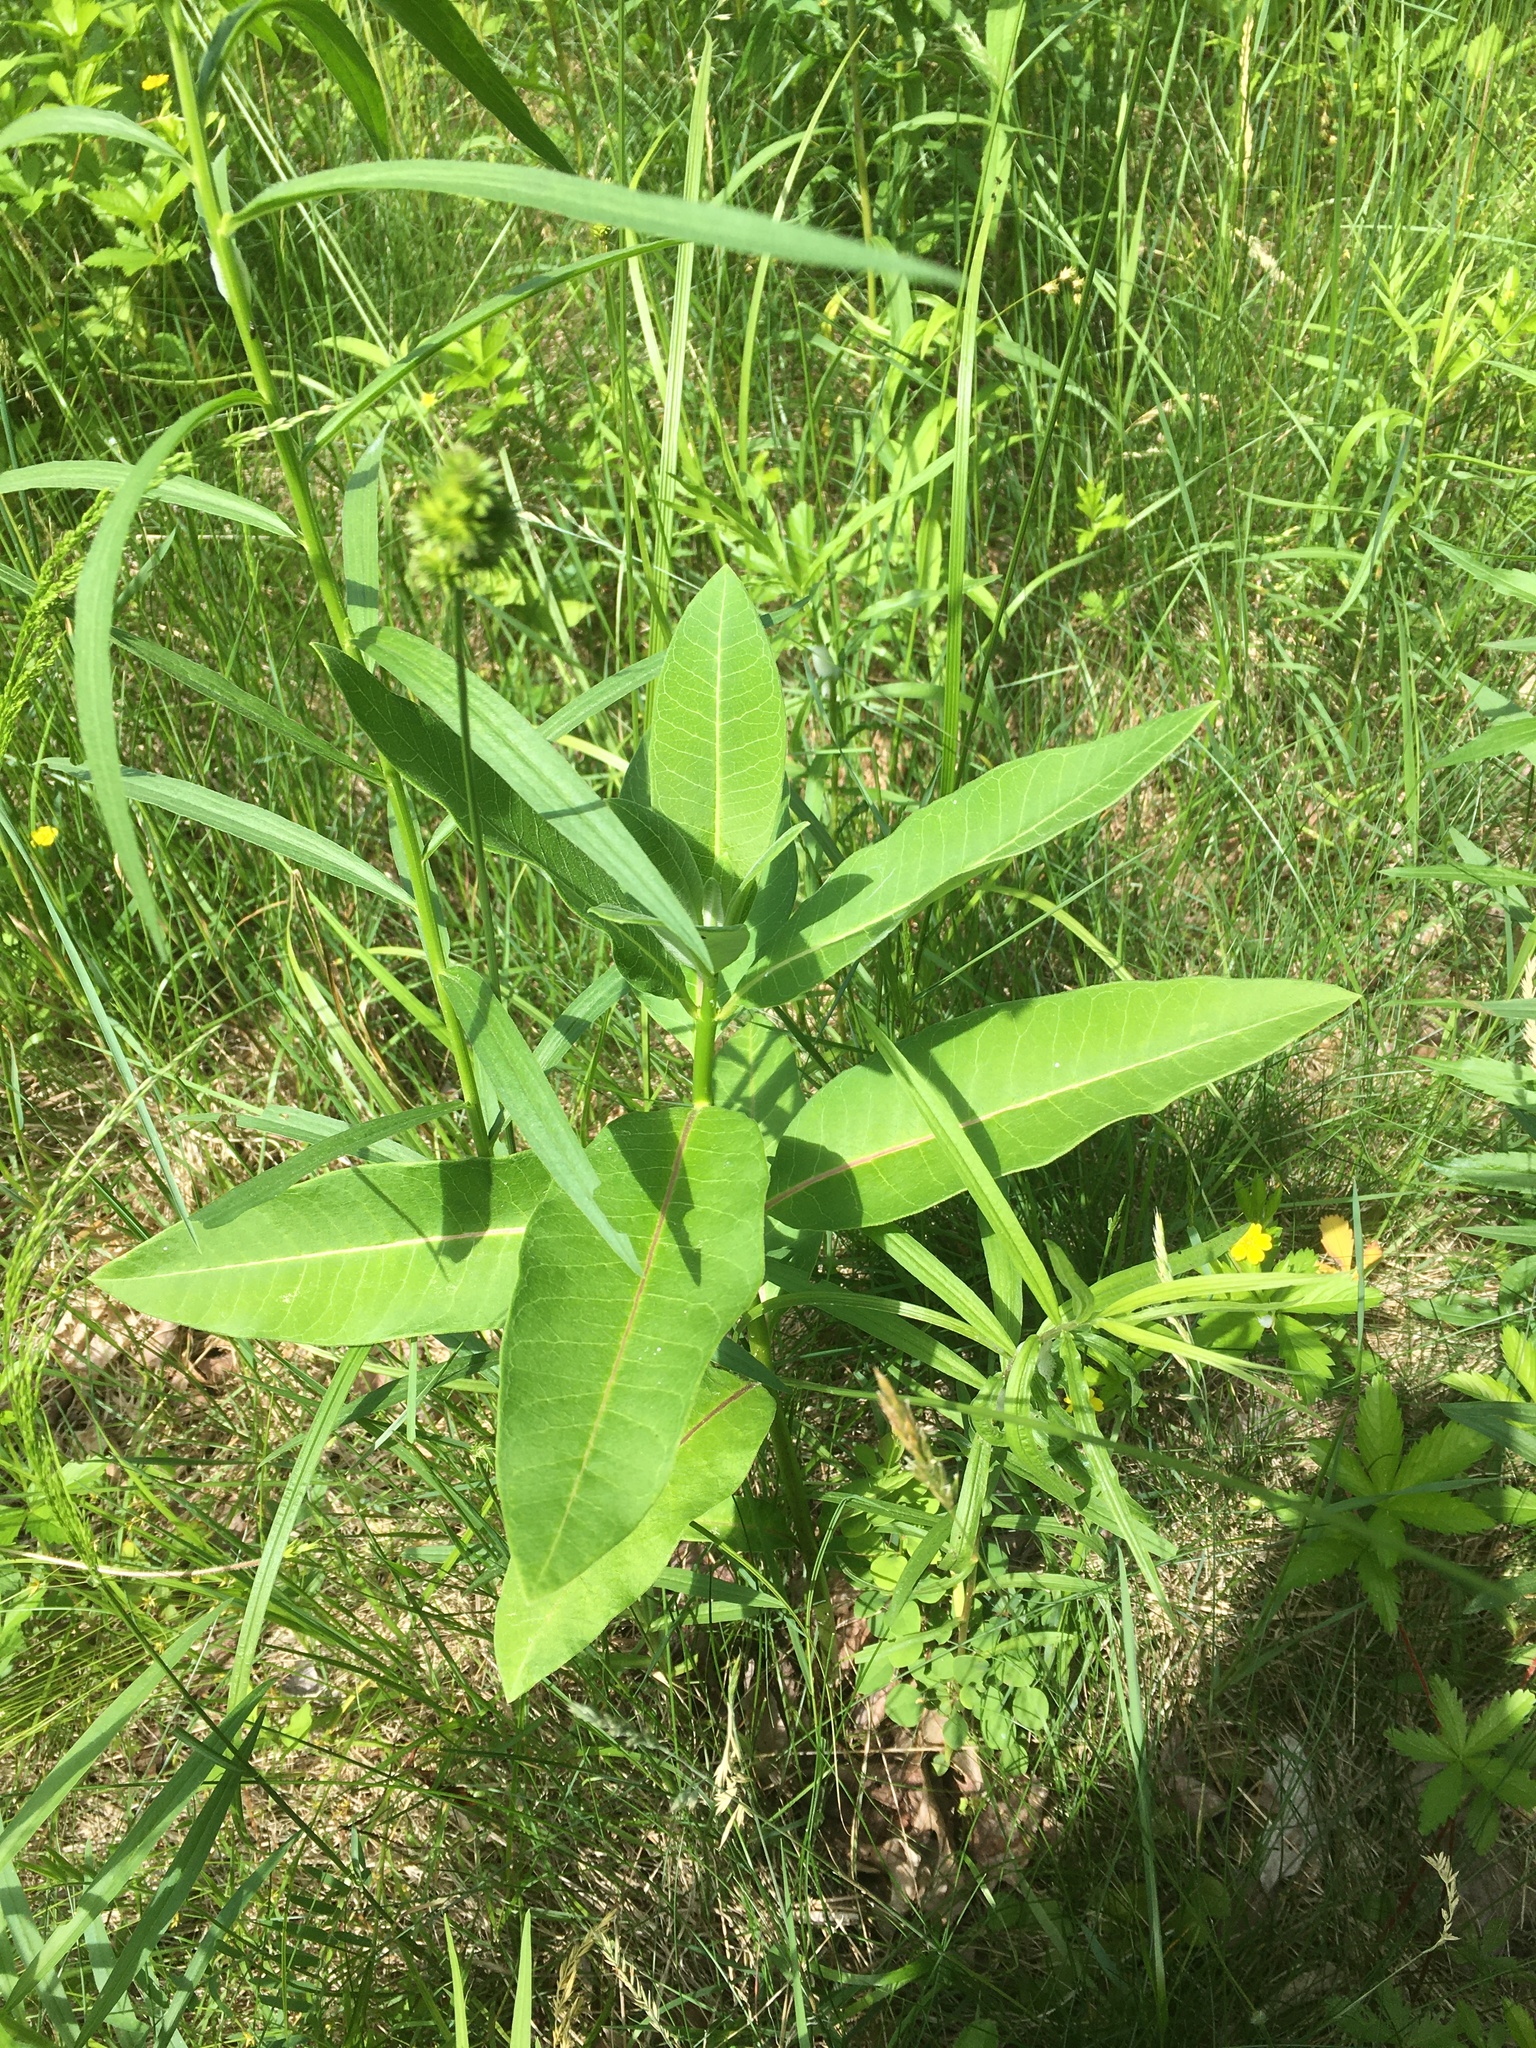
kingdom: Plantae
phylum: Tracheophyta
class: Magnoliopsida
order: Gentianales
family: Apocynaceae
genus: Asclepias
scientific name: Asclepias syriaca
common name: Common milkweed
